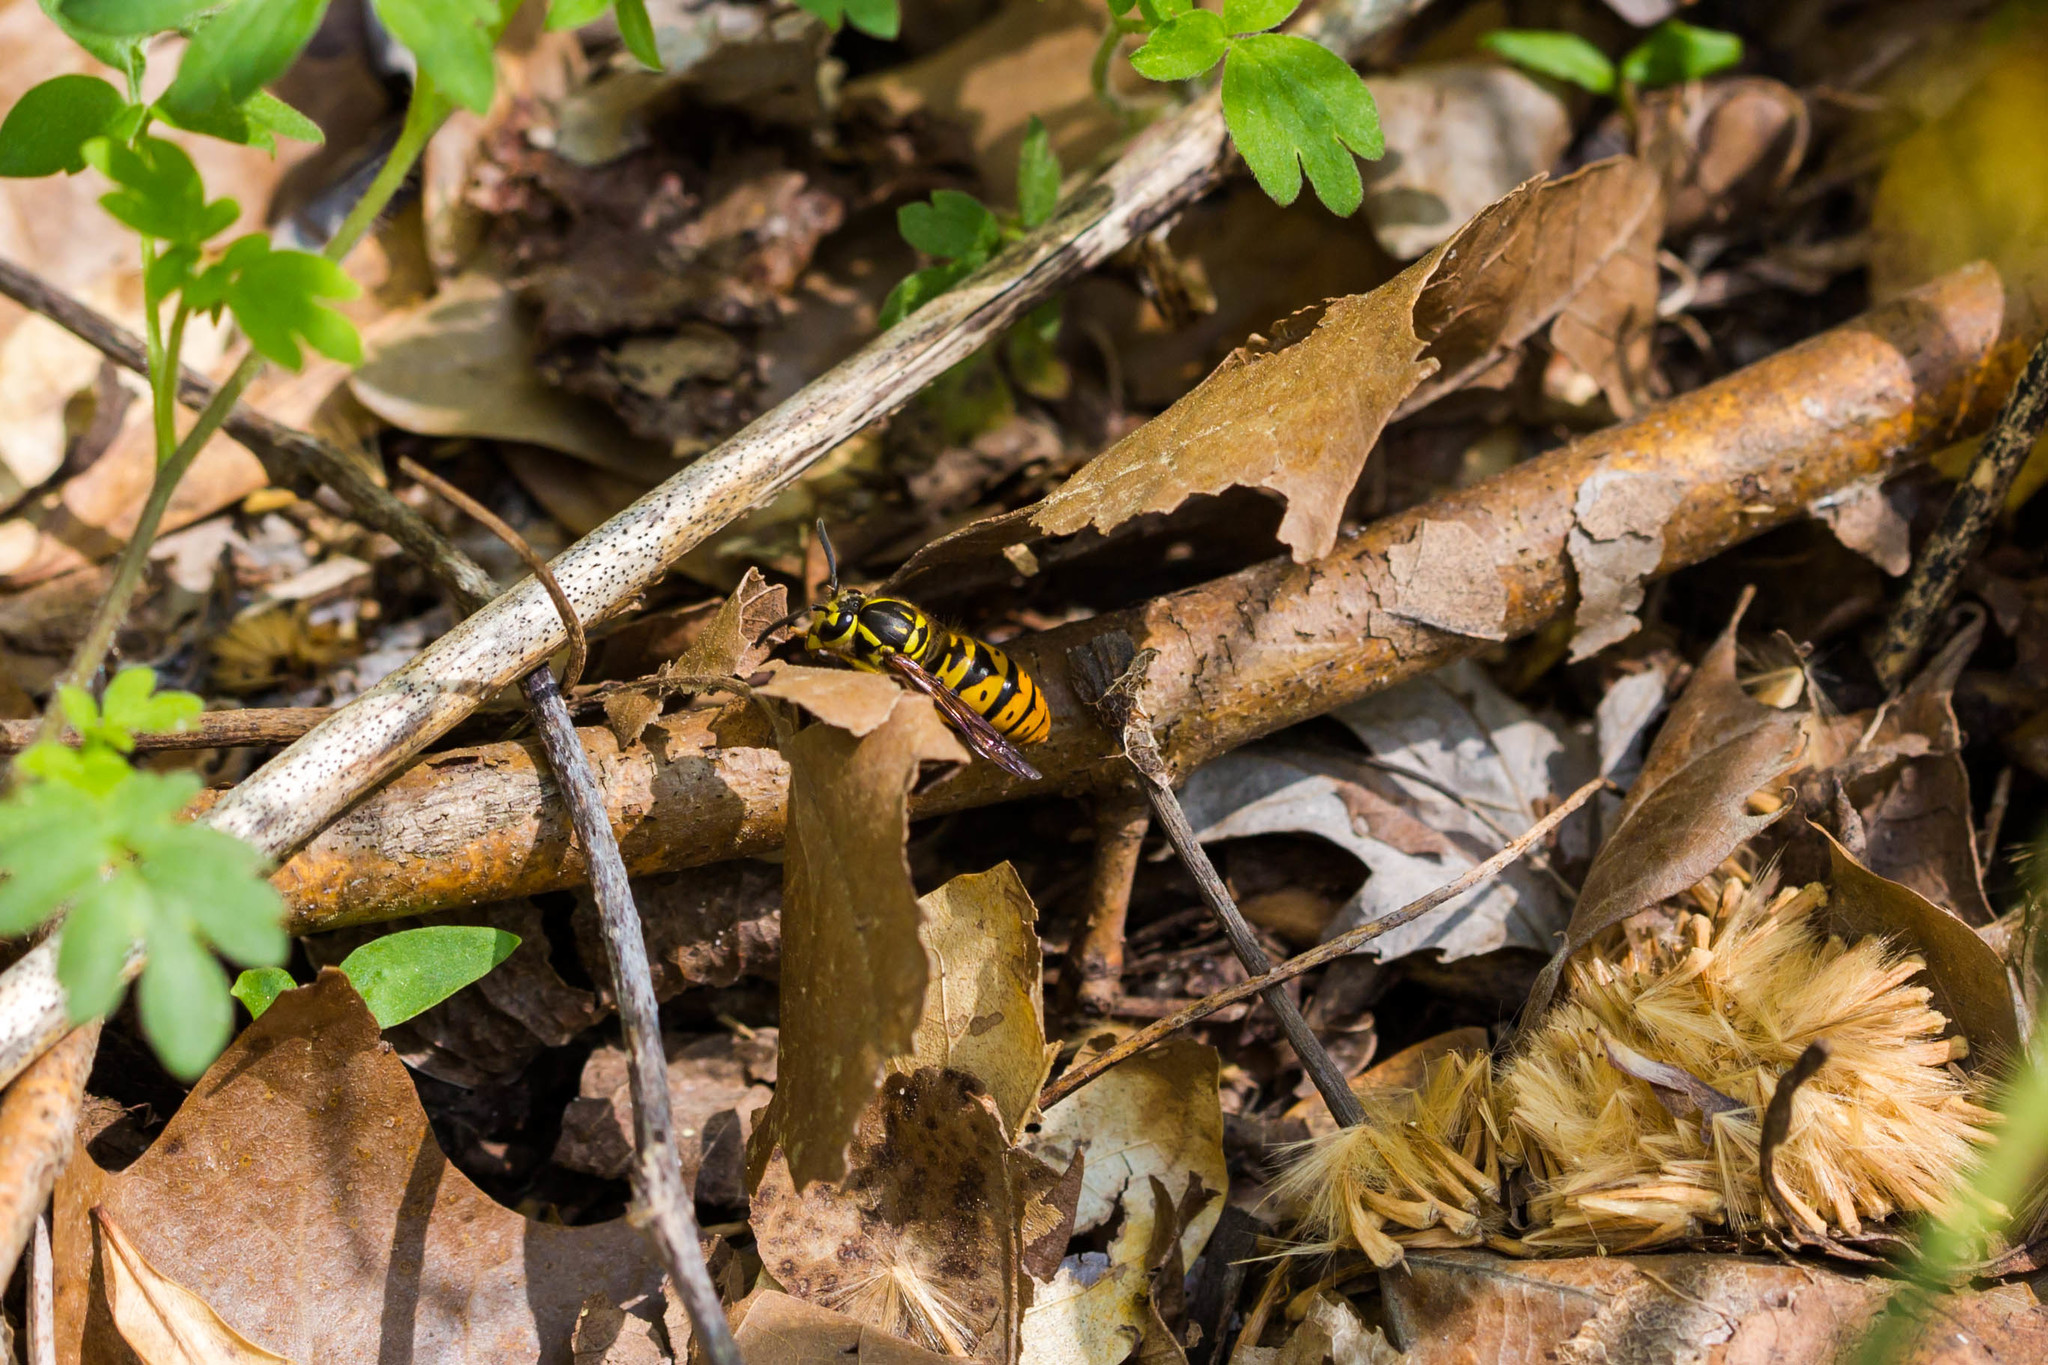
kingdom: Animalia
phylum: Arthropoda
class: Insecta
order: Hymenoptera
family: Vespidae
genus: Vespula
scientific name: Vespula maculifrons
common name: Eastern yellowjacket
